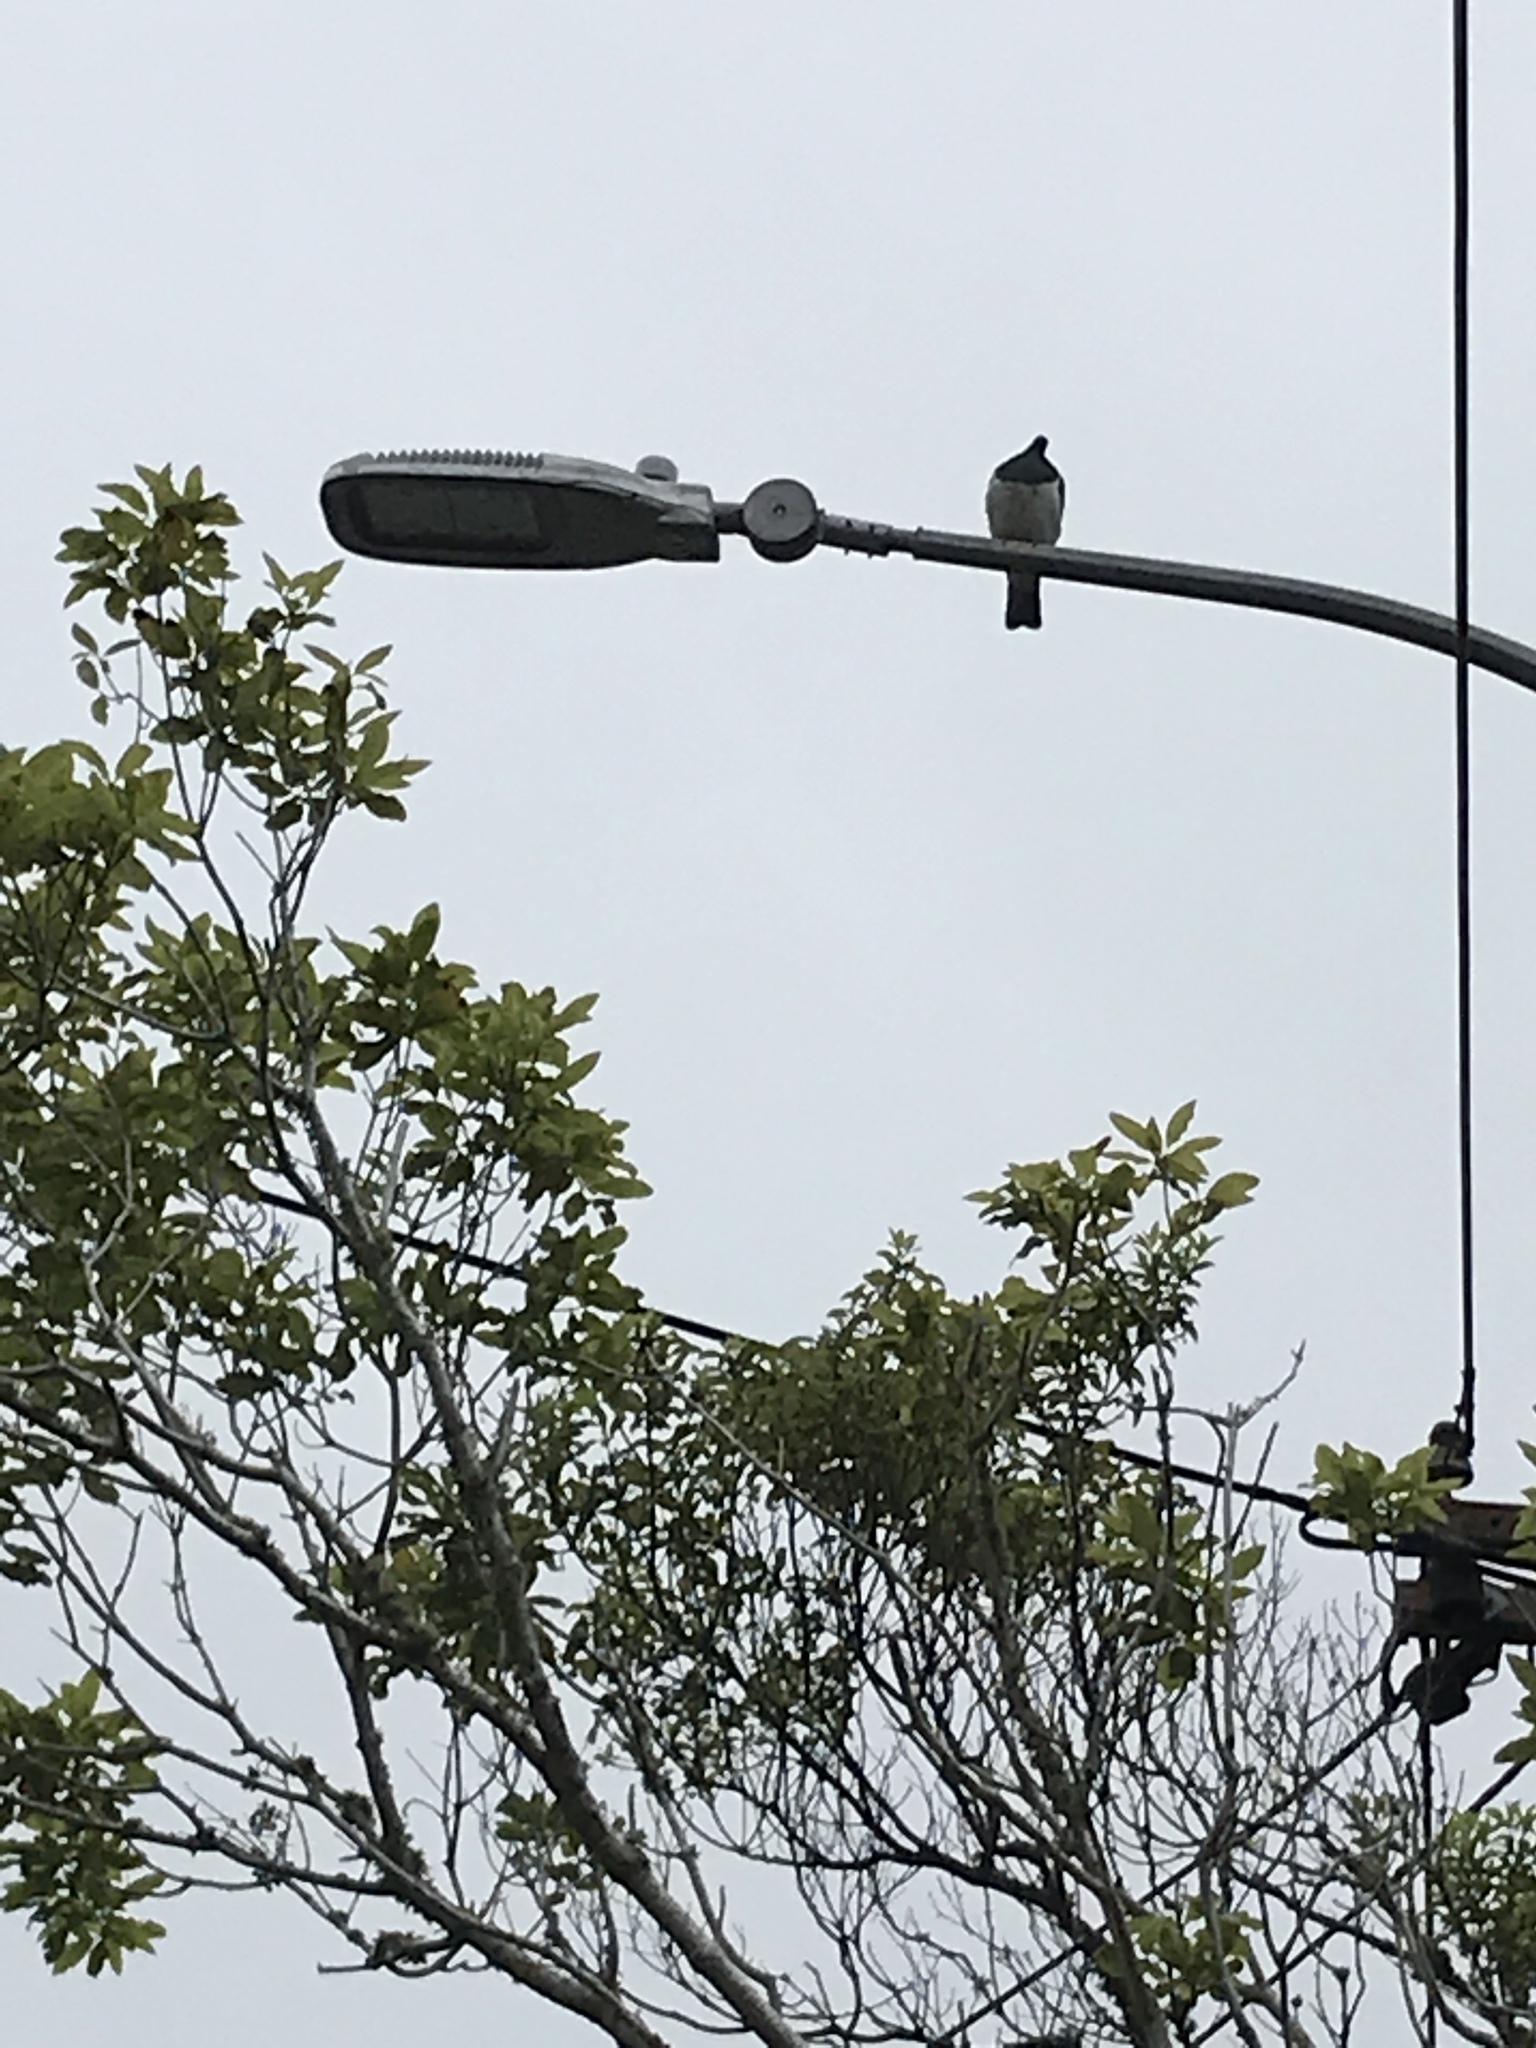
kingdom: Animalia
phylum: Chordata
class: Aves
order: Columbiformes
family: Columbidae
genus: Hemiphaga
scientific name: Hemiphaga novaeseelandiae
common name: New zealand pigeon
